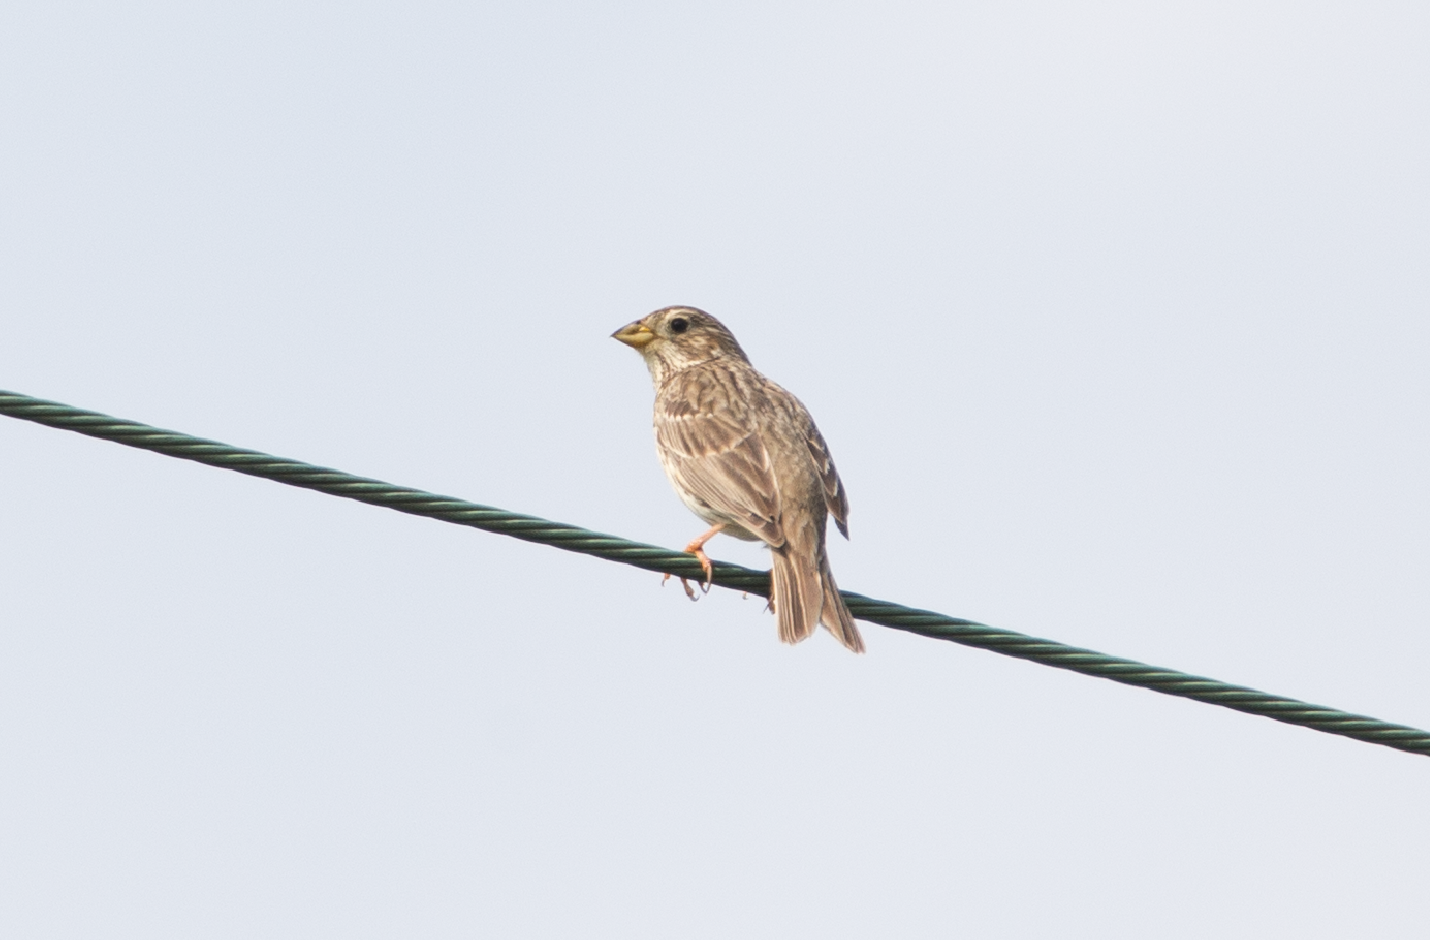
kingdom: Animalia
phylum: Chordata
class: Aves
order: Passeriformes
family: Emberizidae
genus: Emberiza
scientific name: Emberiza calandra
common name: Corn bunting
